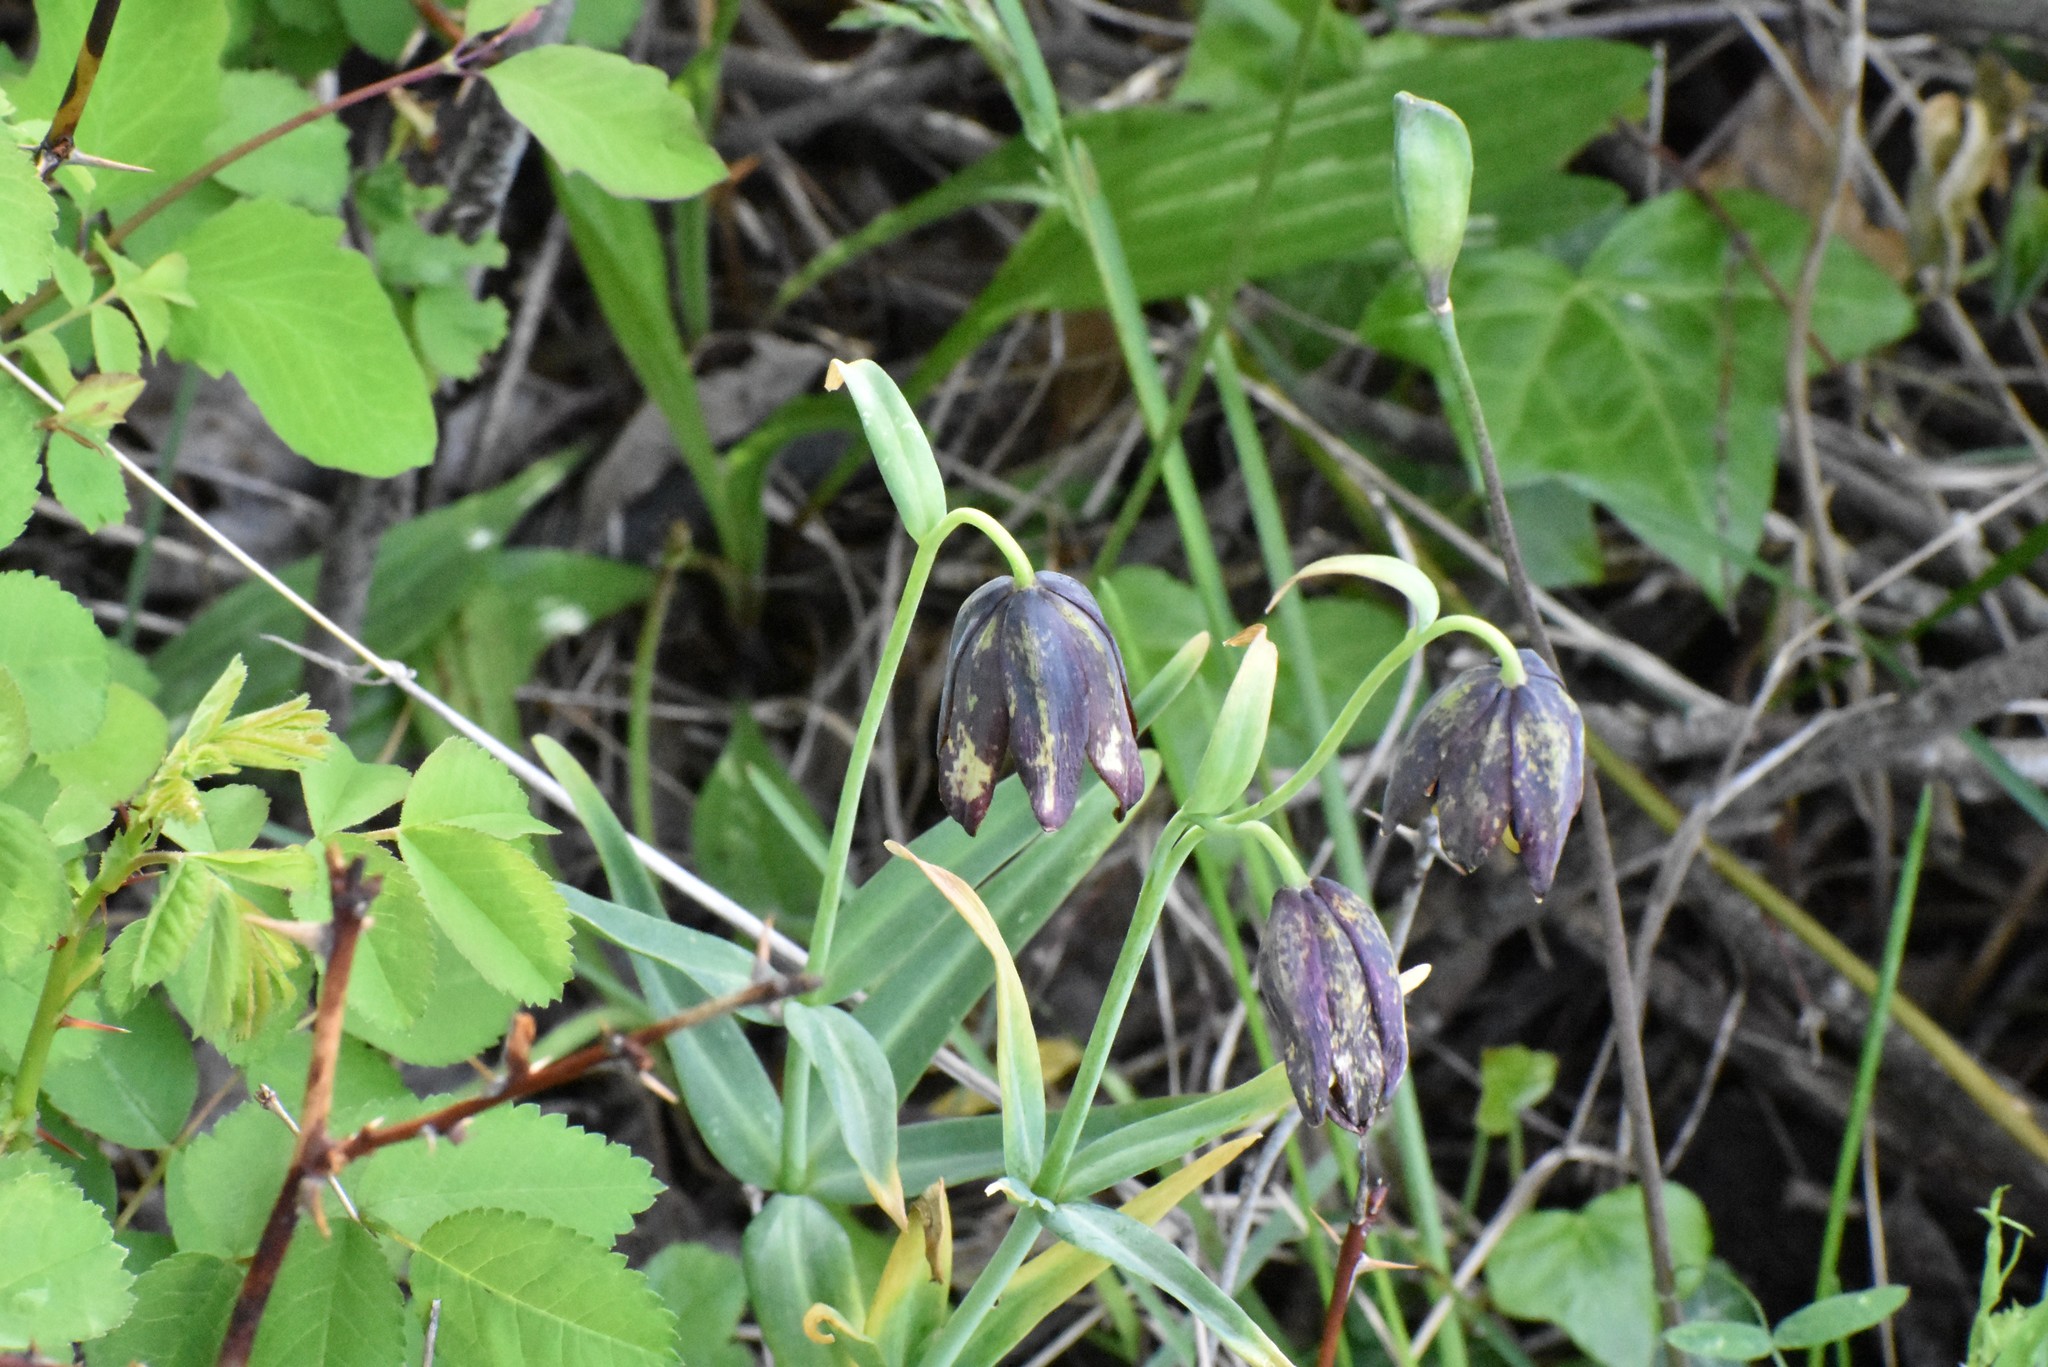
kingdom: Plantae
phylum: Tracheophyta
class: Liliopsida
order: Liliales
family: Liliaceae
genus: Fritillaria
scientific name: Fritillaria affinis
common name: Ojai fritillary
